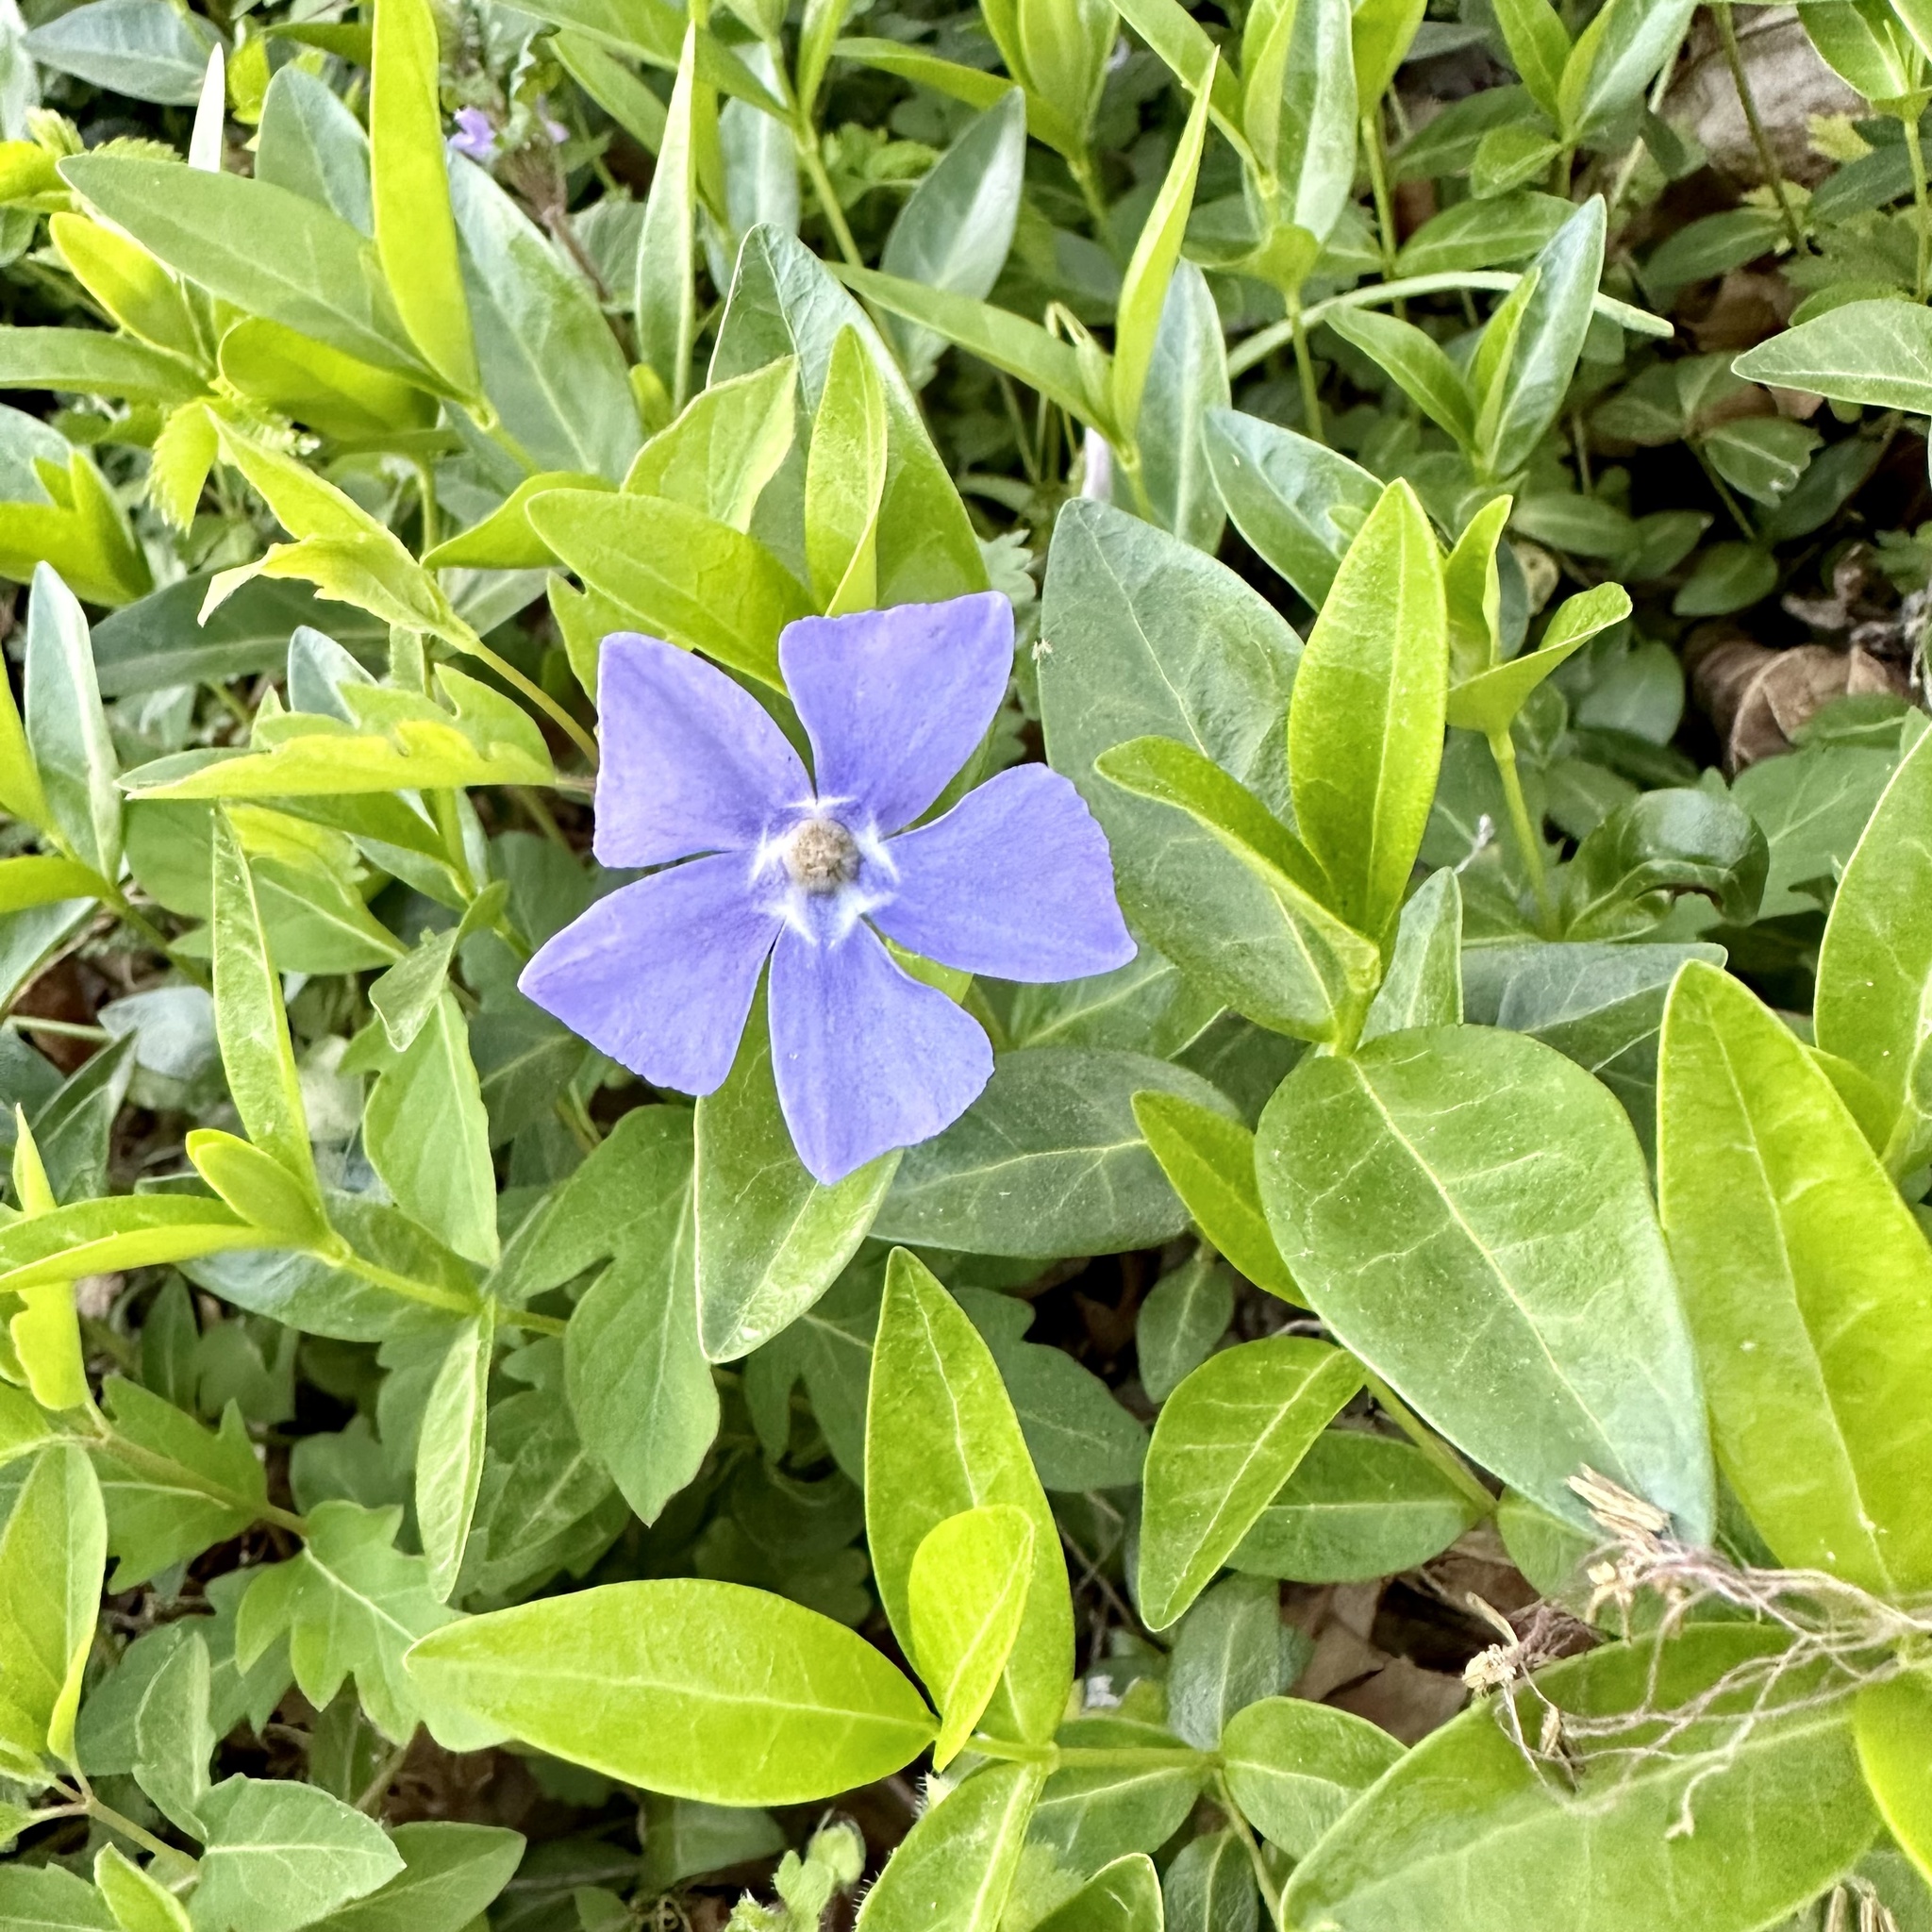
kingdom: Plantae
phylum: Tracheophyta
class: Magnoliopsida
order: Gentianales
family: Apocynaceae
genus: Vinca
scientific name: Vinca minor
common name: Lesser periwinkle
